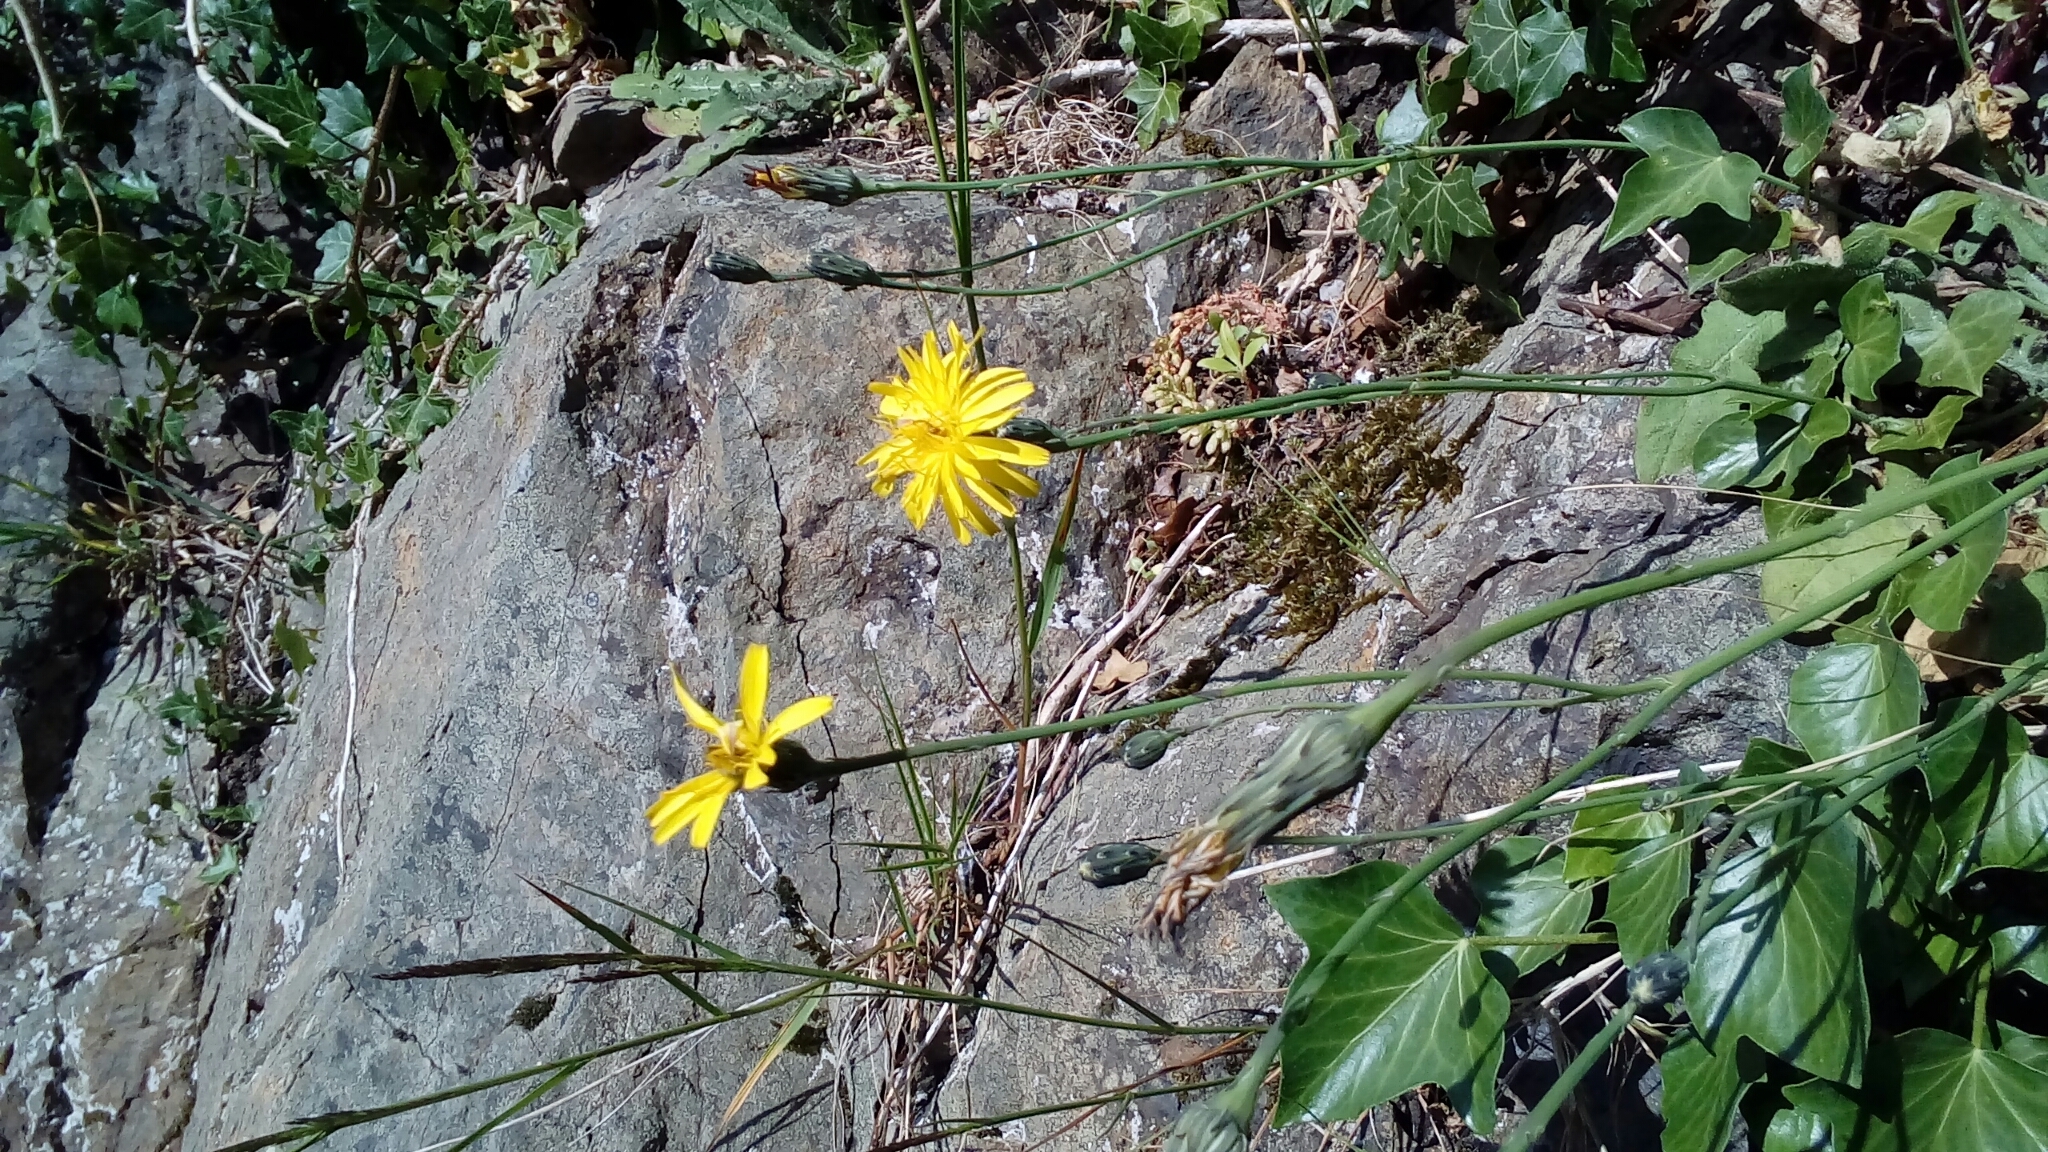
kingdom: Plantae
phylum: Tracheophyta
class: Magnoliopsida
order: Asterales
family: Asteraceae
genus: Hypochaeris
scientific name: Hypochaeris radicata
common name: Flatweed
